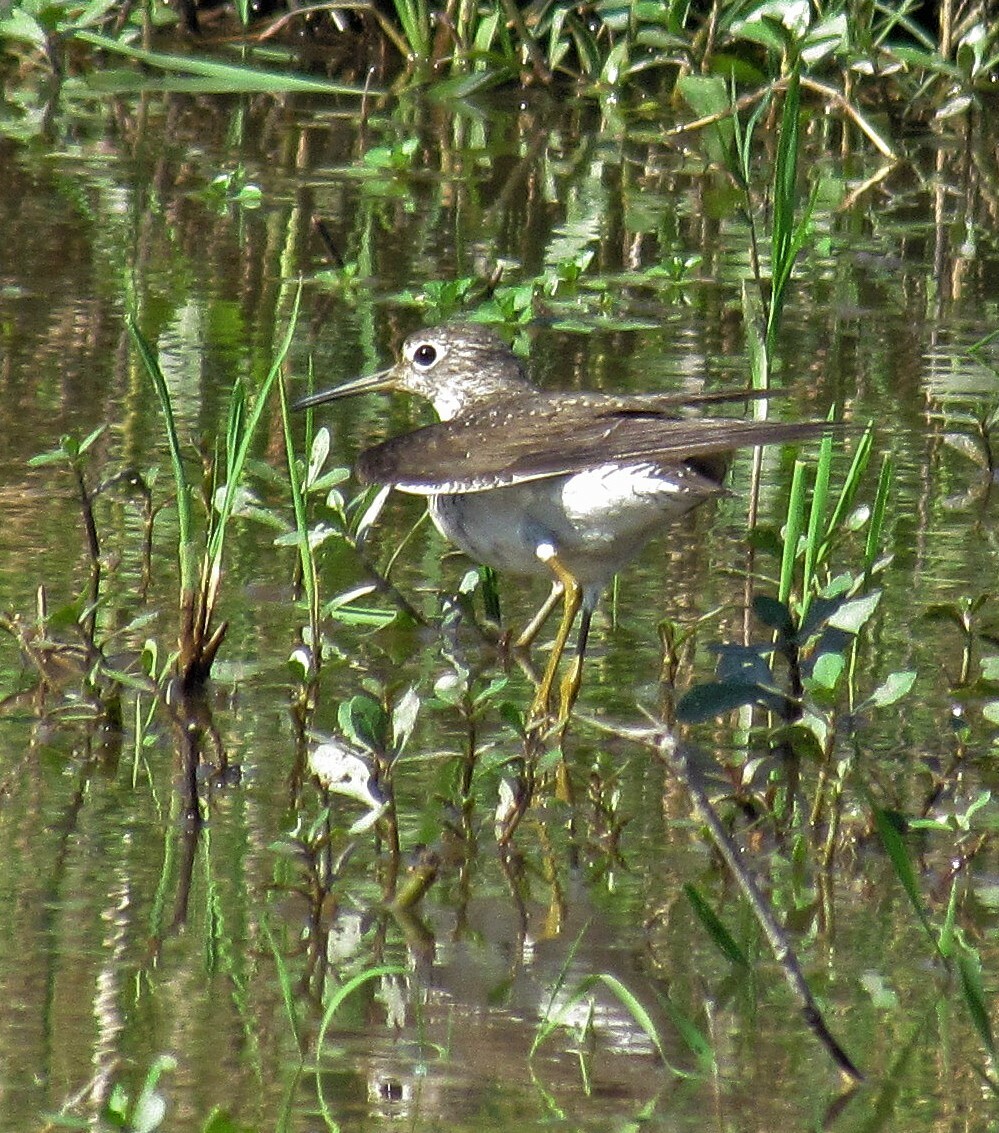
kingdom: Animalia
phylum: Chordata
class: Aves
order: Charadriiformes
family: Scolopacidae
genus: Tringa
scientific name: Tringa solitaria
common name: Solitary sandpiper
